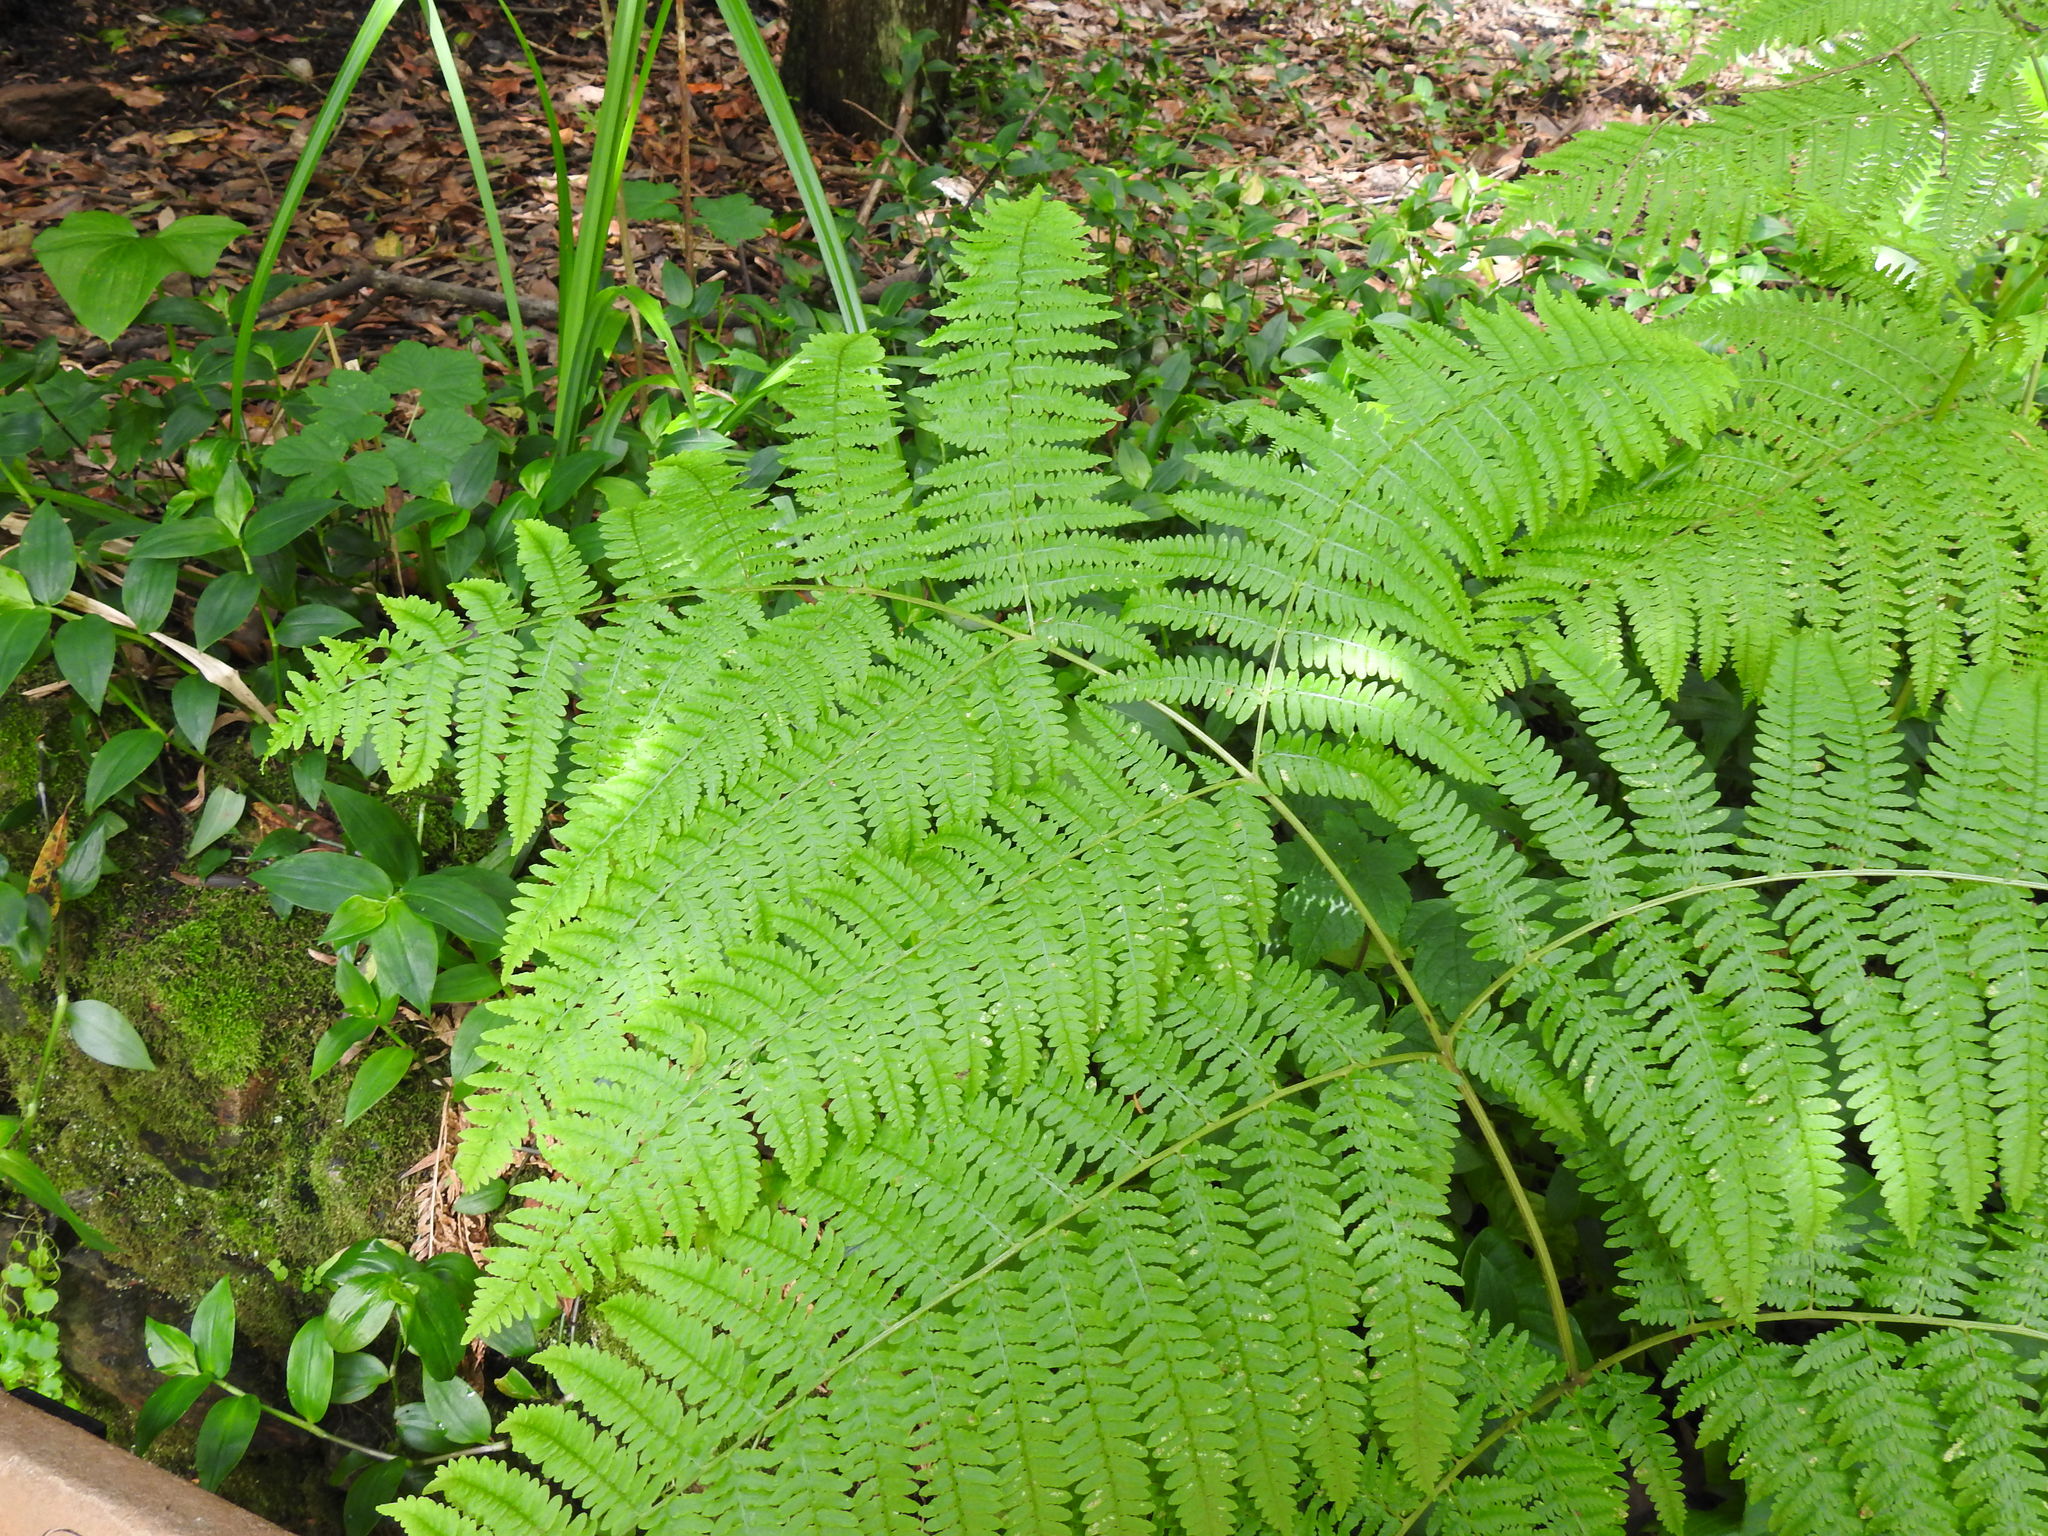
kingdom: Plantae
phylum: Tracheophyta
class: Polypodiopsida
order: Polypodiales
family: Dennstaedtiaceae
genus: Pteridium
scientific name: Pteridium aquilinum
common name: Bracken
